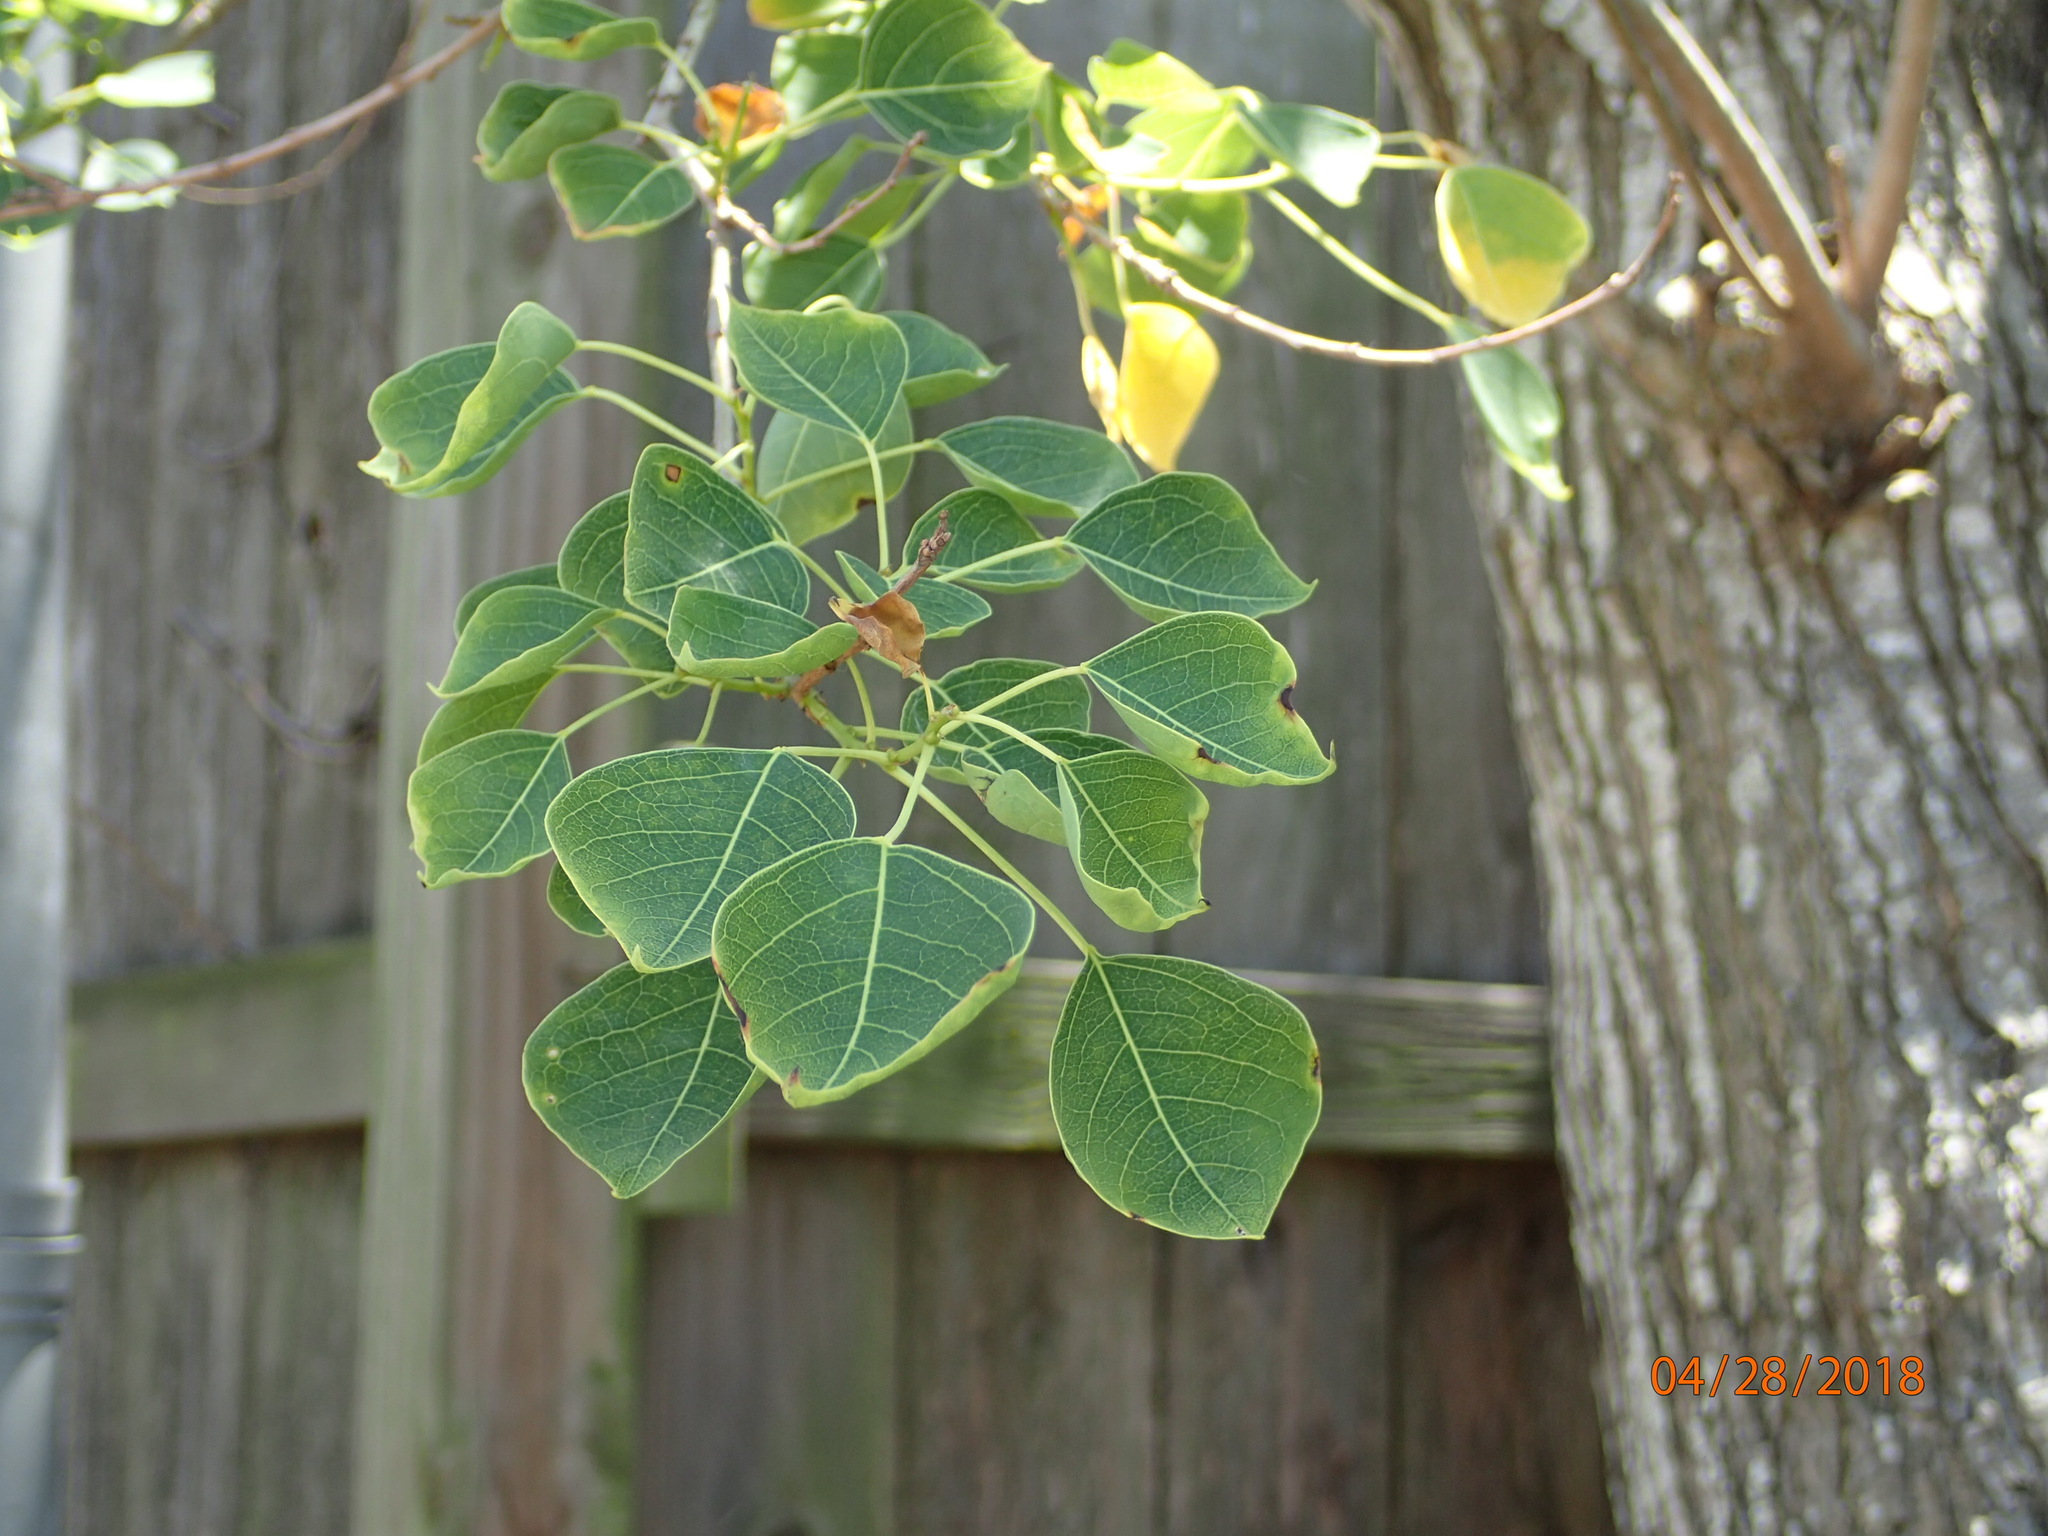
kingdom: Plantae
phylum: Tracheophyta
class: Magnoliopsida
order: Malpighiales
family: Euphorbiaceae
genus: Triadica
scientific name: Triadica sebifera
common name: Chinese tallow
